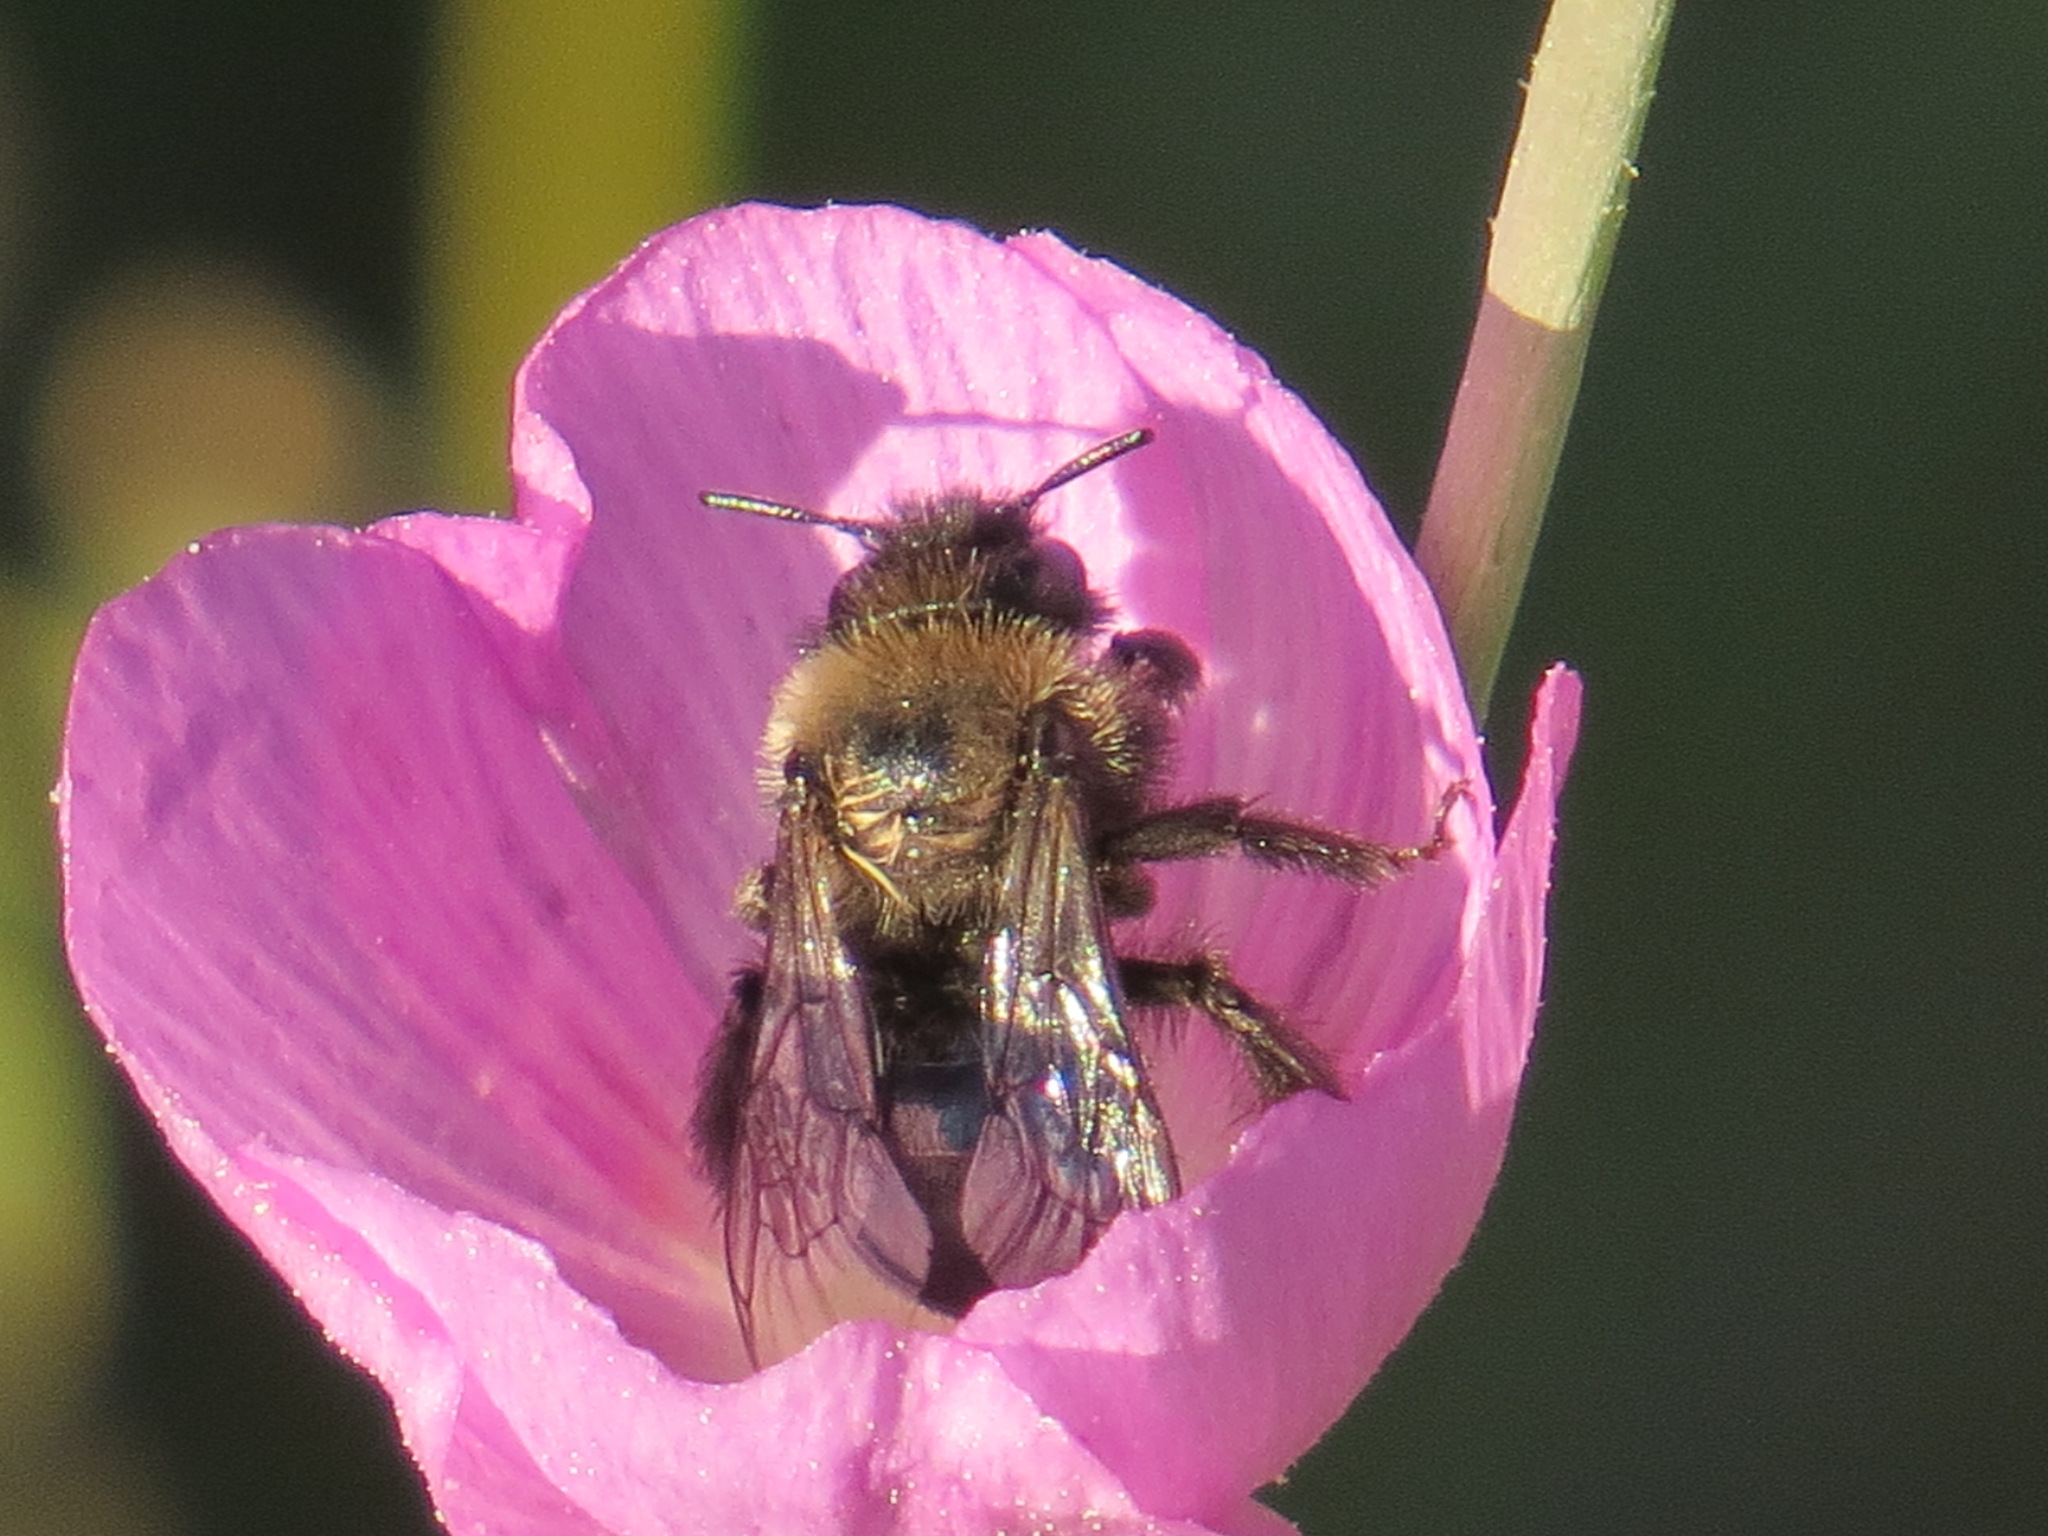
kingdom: Animalia
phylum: Arthropoda
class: Insecta
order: Hymenoptera
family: Apidae
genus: Diadasia
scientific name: Diadasia nigrifrons
